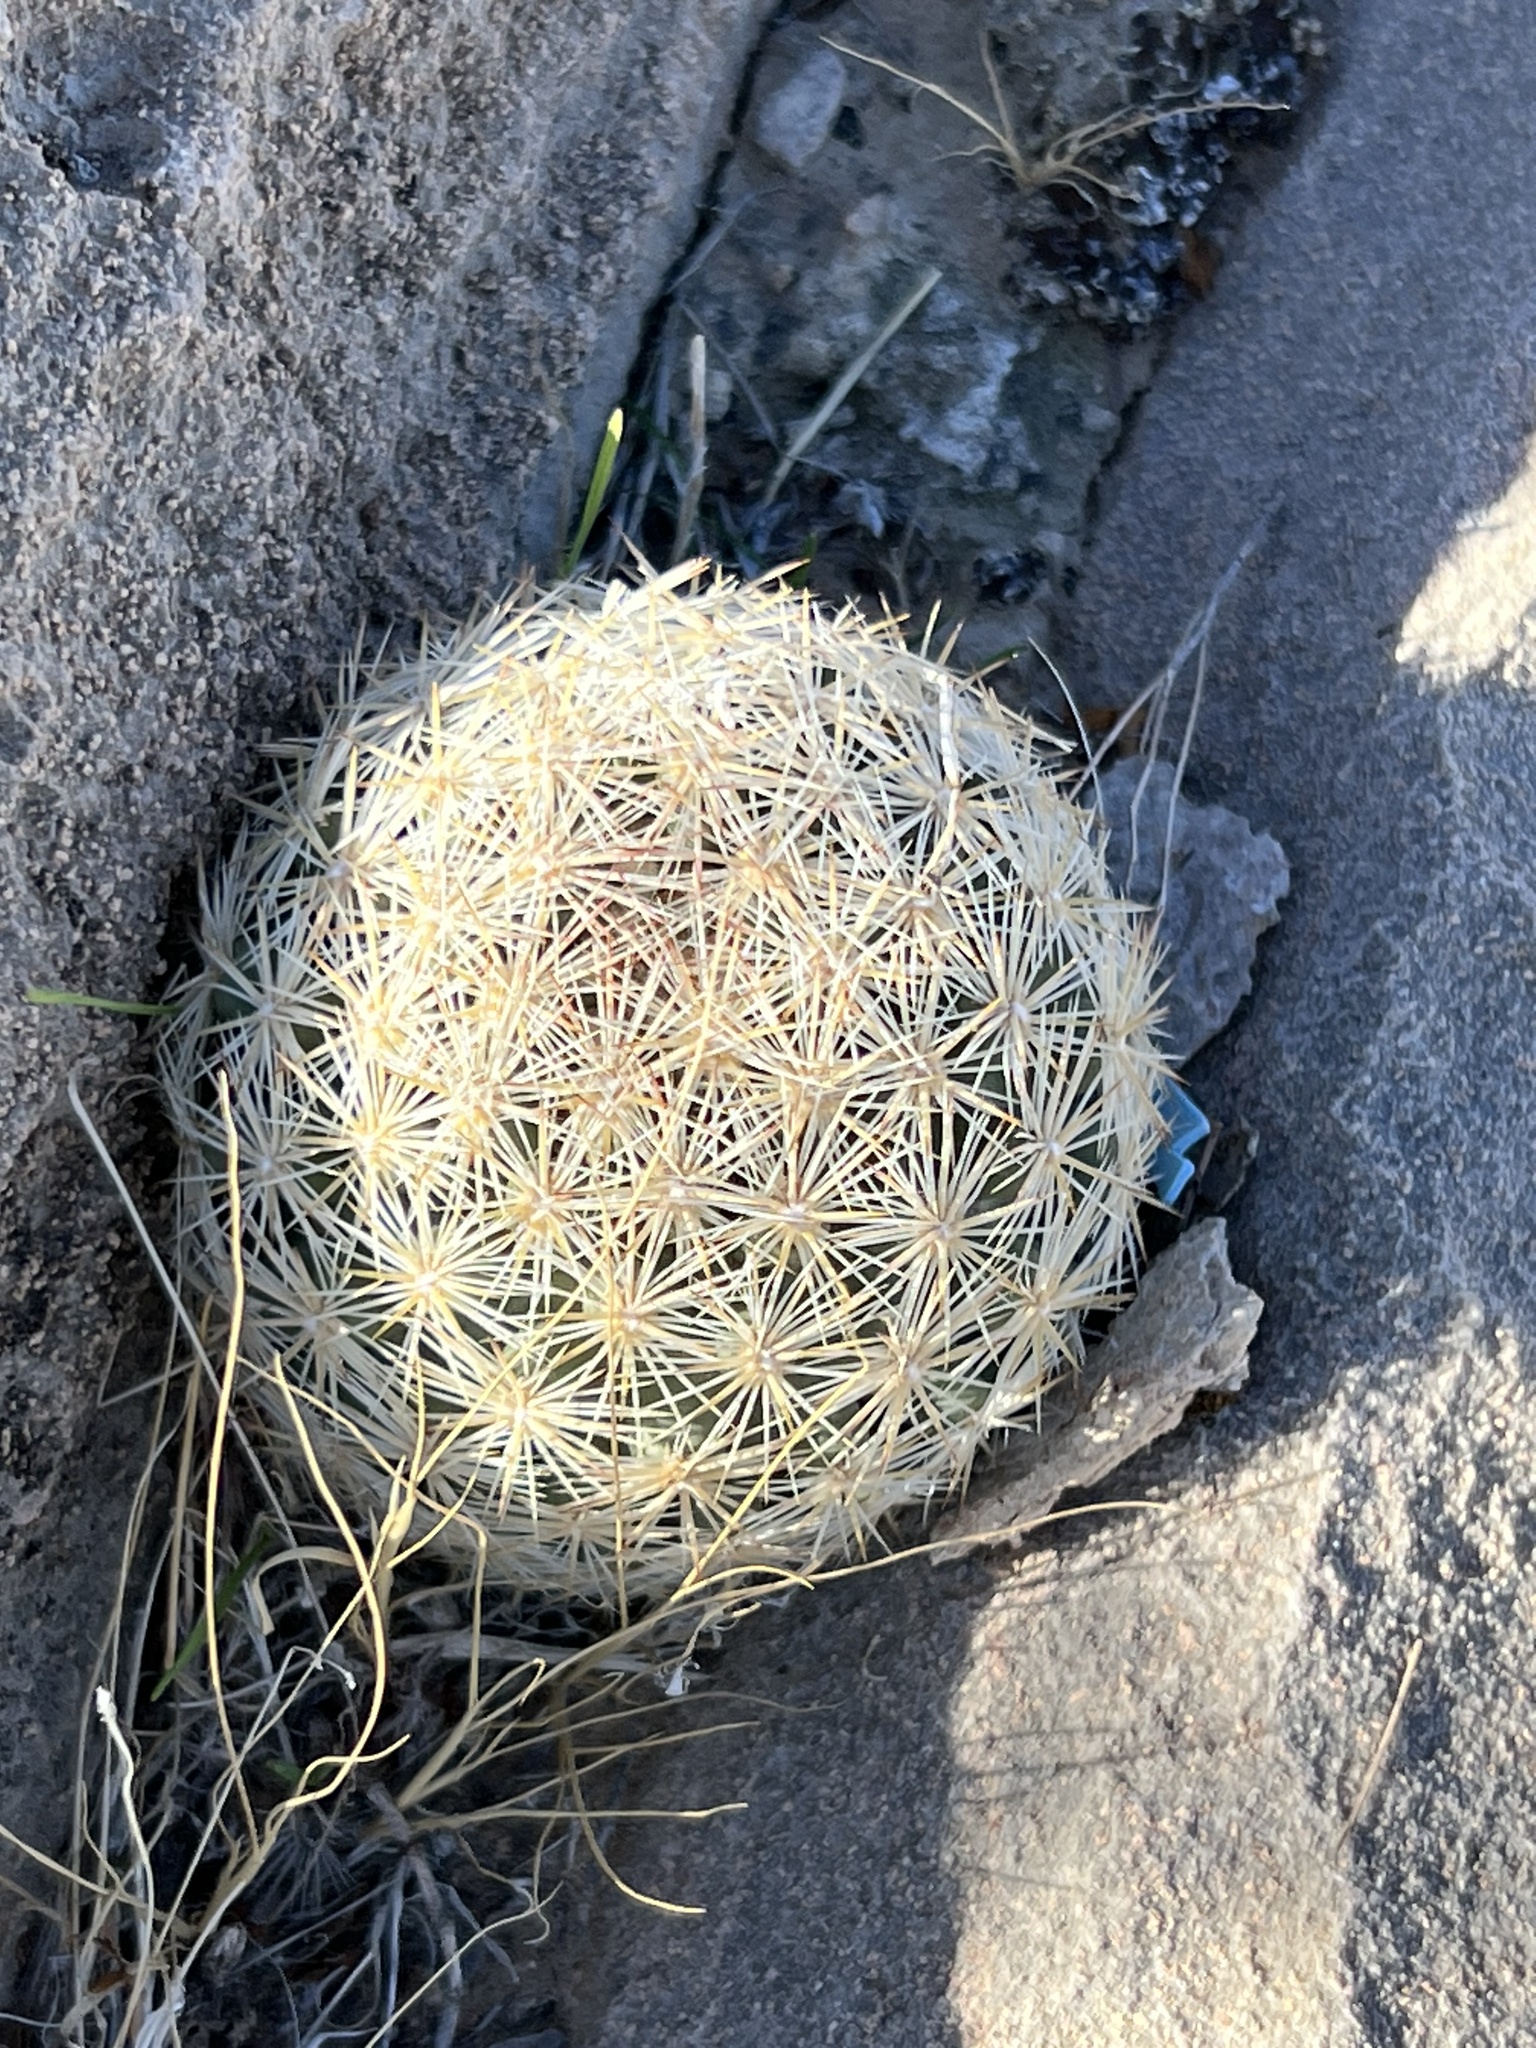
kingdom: Plantae
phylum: Tracheophyta
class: Magnoliopsida
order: Caryophyllales
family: Cactaceae
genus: Pelecyphora
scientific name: Pelecyphora dasyacantha
